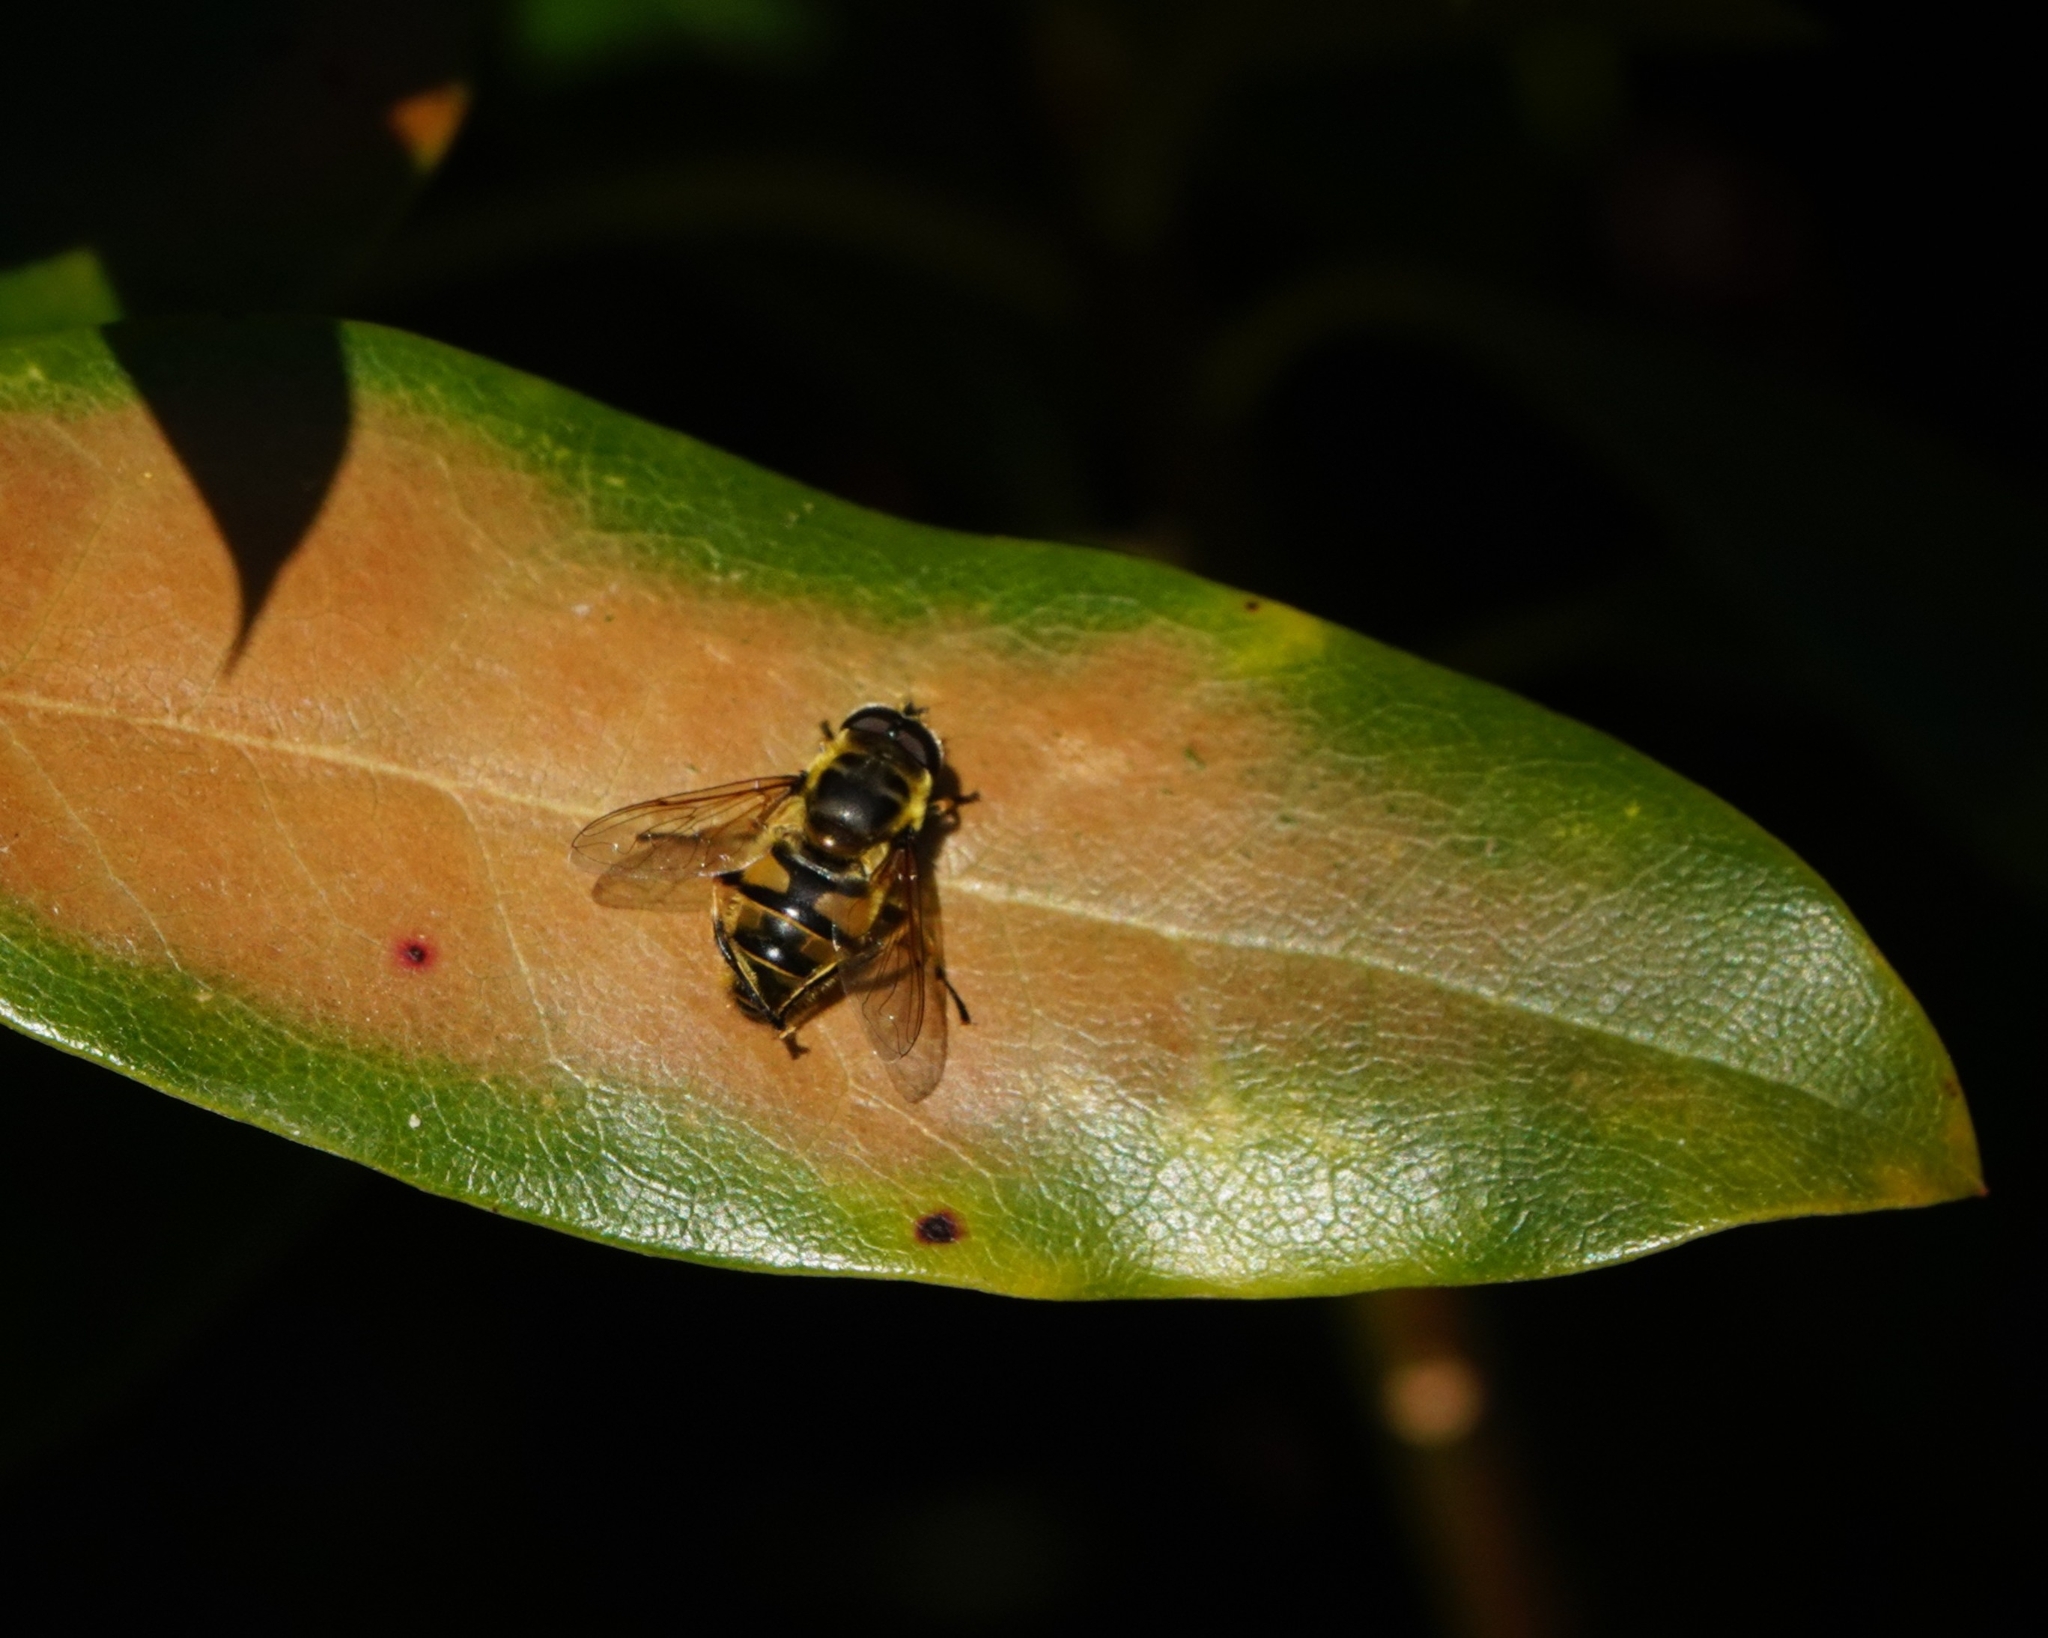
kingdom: Animalia
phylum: Arthropoda
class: Insecta
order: Diptera
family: Syrphidae
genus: Myathropa
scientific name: Myathropa florea
